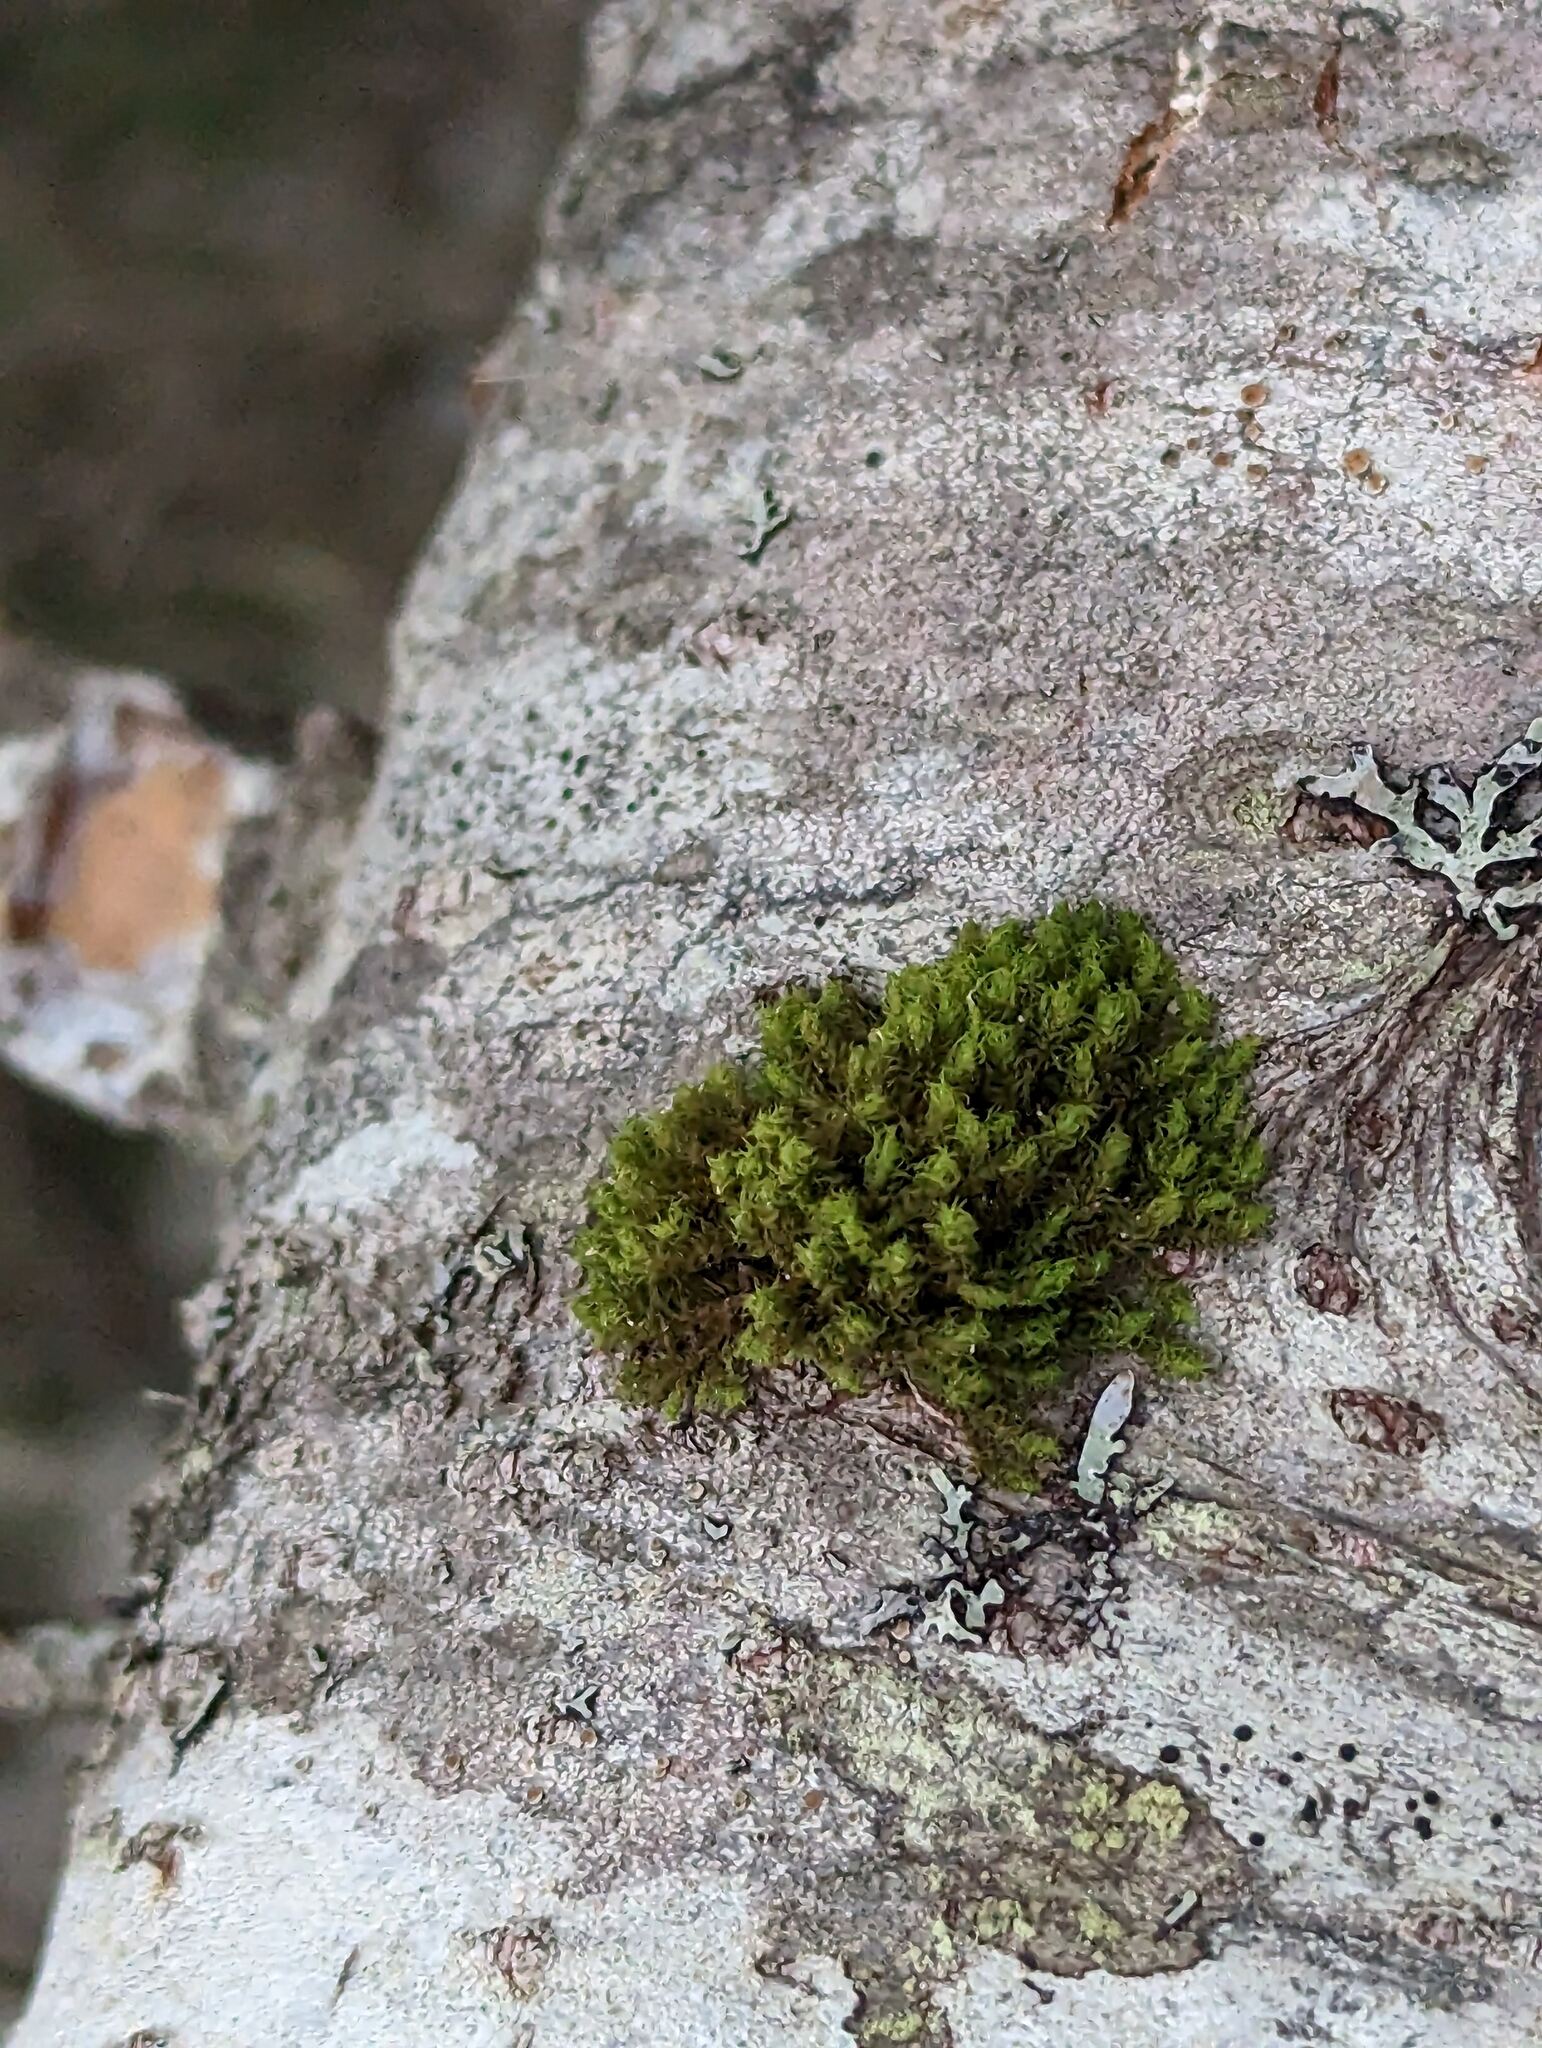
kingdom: Plantae
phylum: Bryophyta
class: Bryopsida
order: Orthotrichales
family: Orthotrichaceae
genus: Ulota
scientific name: Ulota crispa
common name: Crisped pincushion moss
